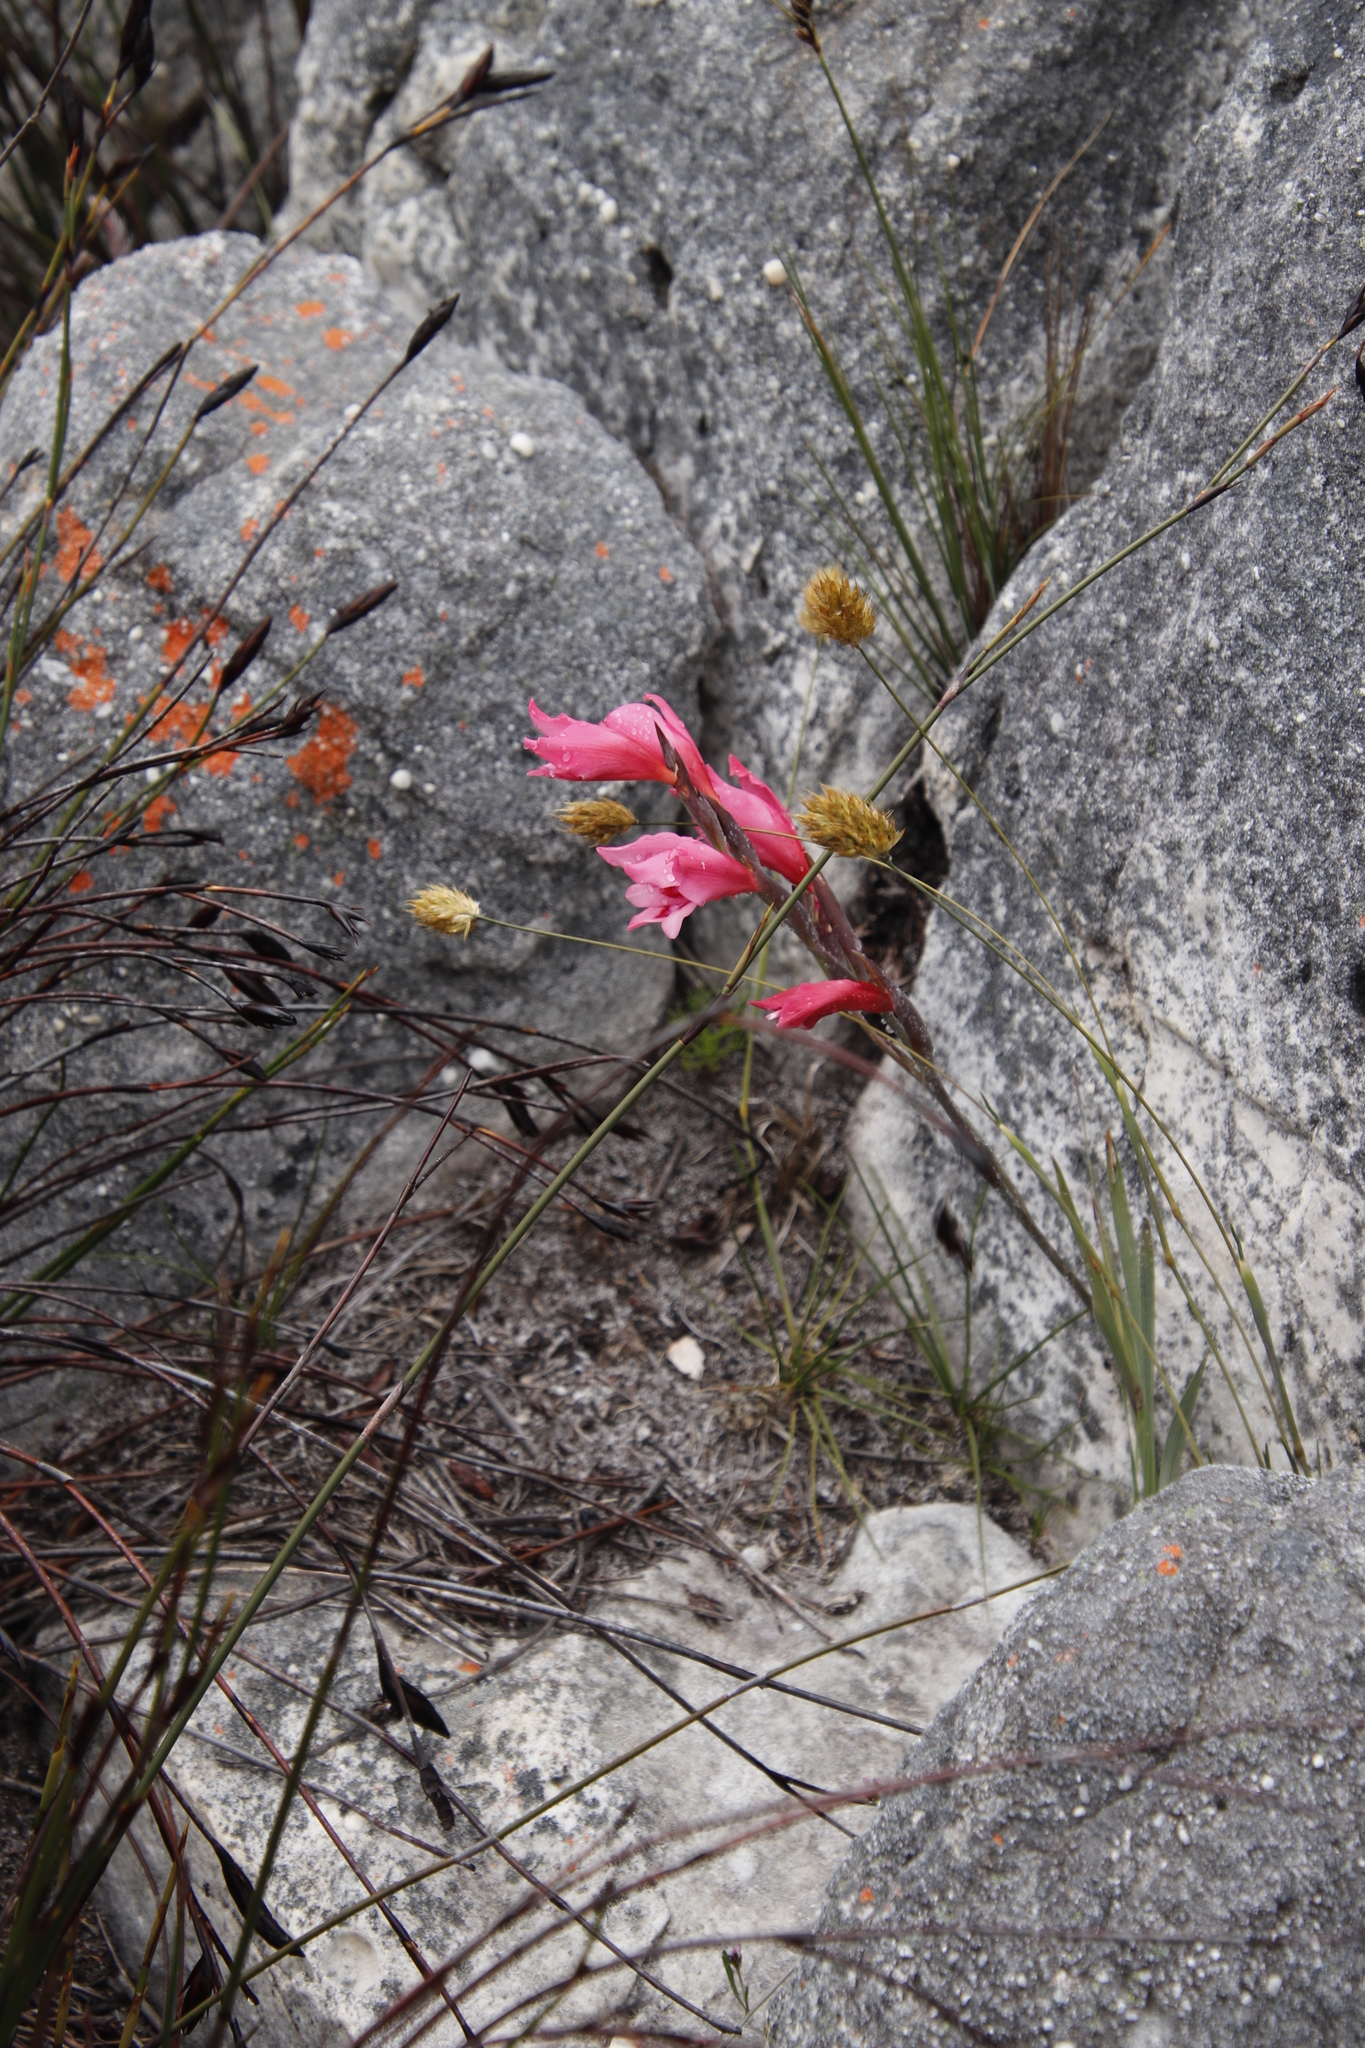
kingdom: Plantae
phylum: Tracheophyta
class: Liliopsida
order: Asparagales
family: Iridaceae
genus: Gladiolus
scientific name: Gladiolus carneus
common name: Painted-lady
